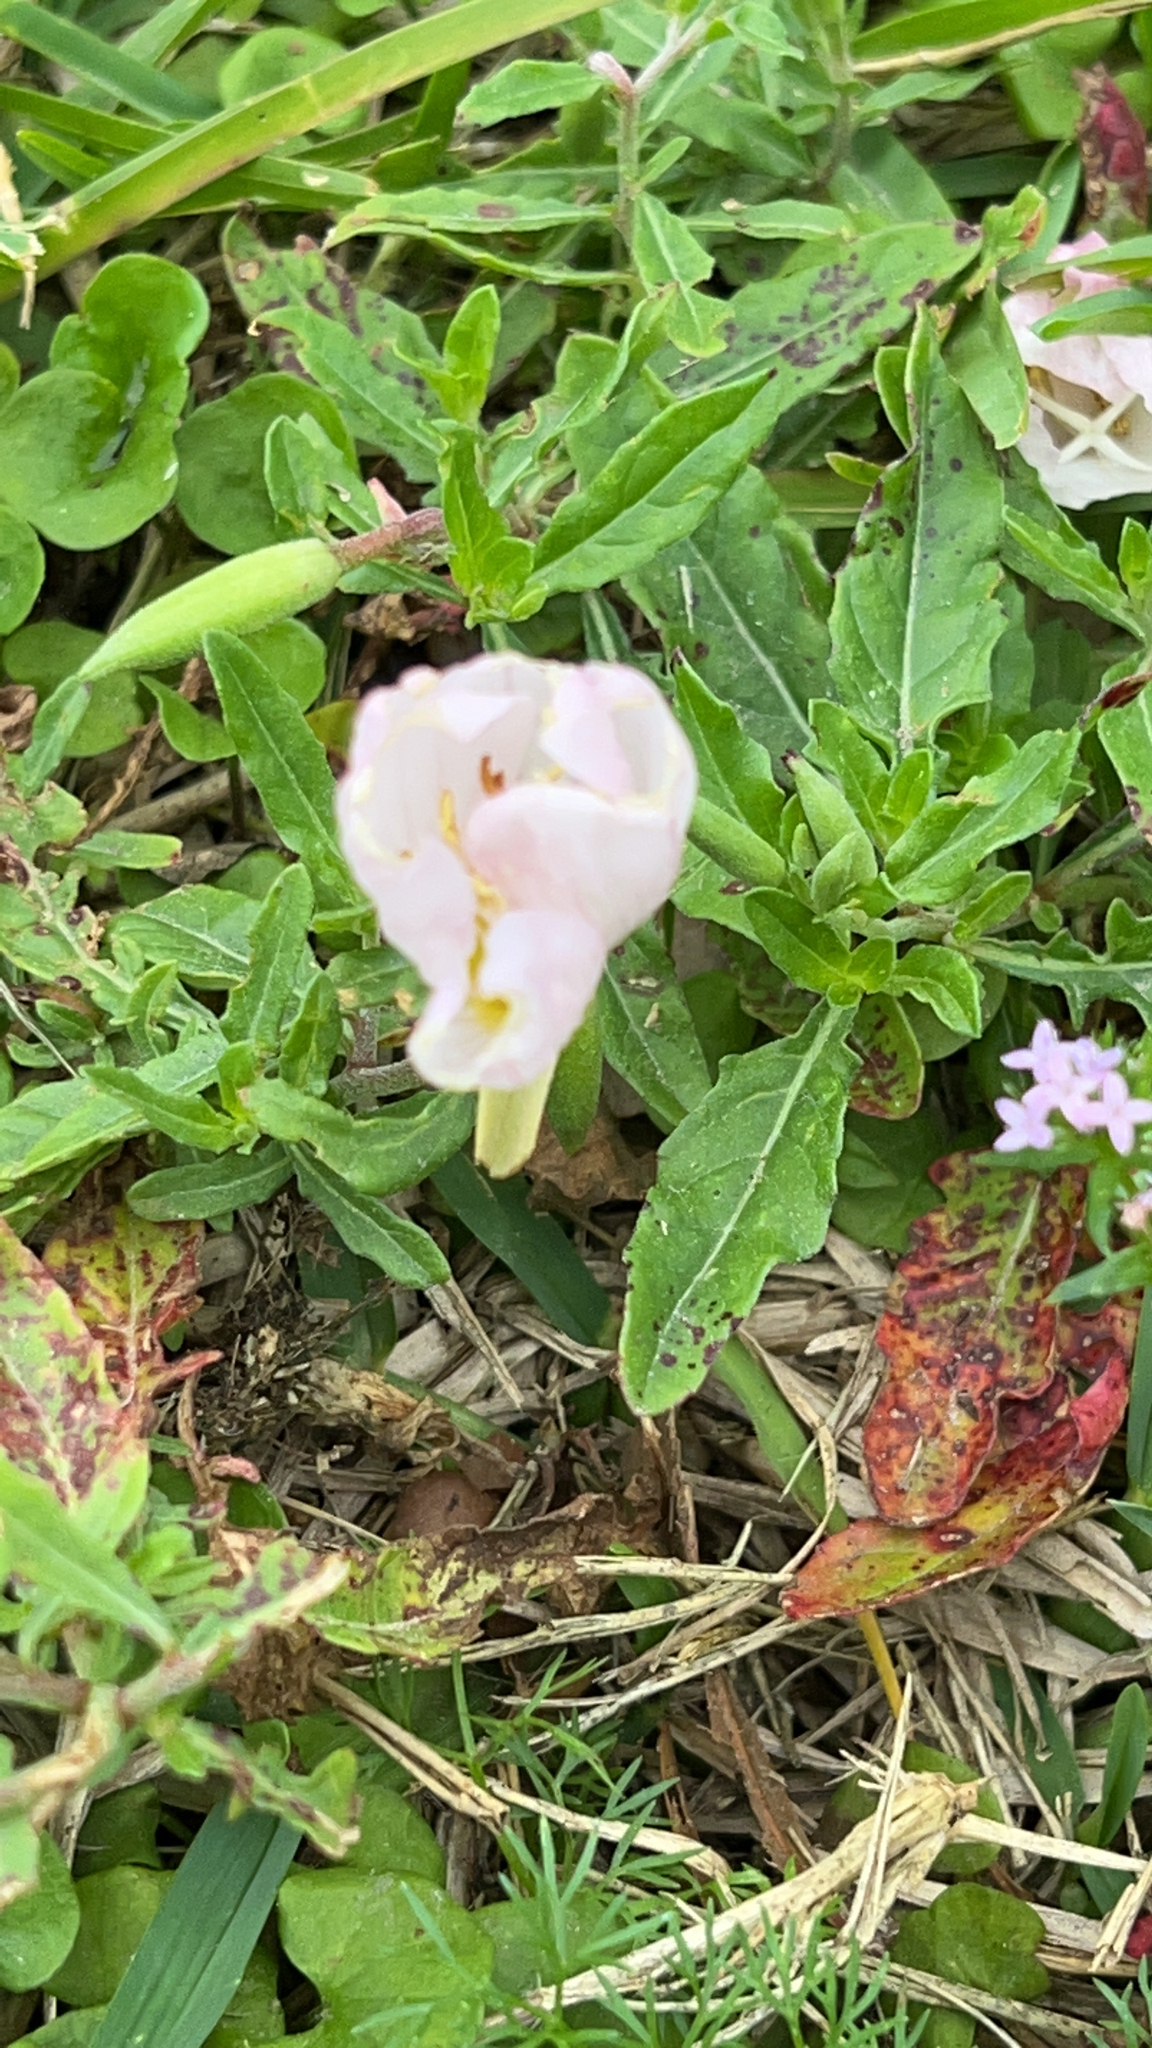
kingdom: Plantae
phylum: Tracheophyta
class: Magnoliopsida
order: Myrtales
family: Onagraceae
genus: Oenothera
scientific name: Oenothera speciosa
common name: White evening-primrose
